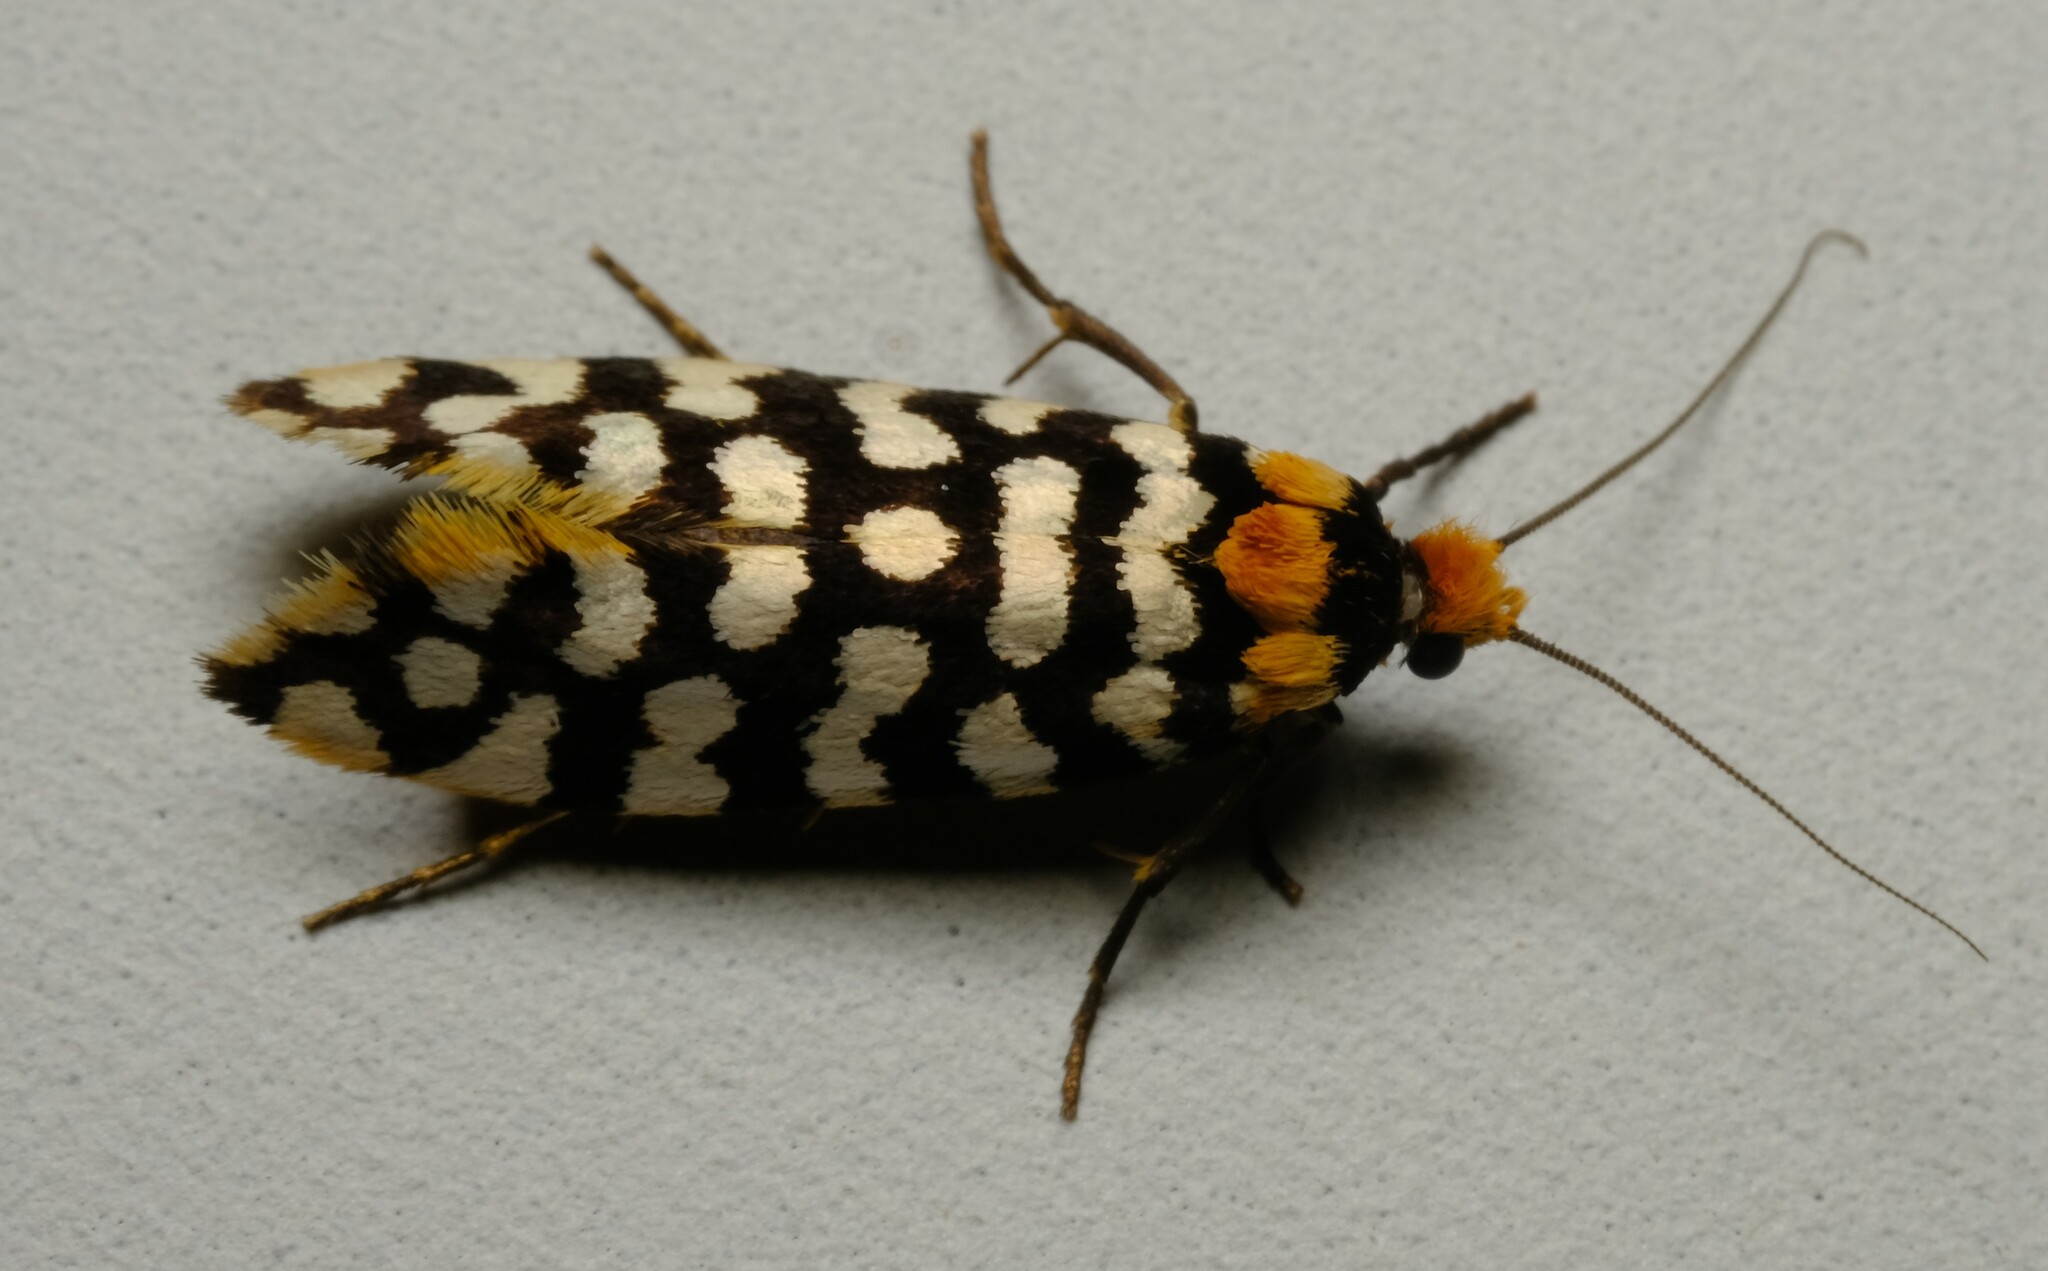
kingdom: Animalia
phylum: Arthropoda
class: Insecta
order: Lepidoptera
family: Tineidae
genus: Moerarchis
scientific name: Moerarchis australasiella
